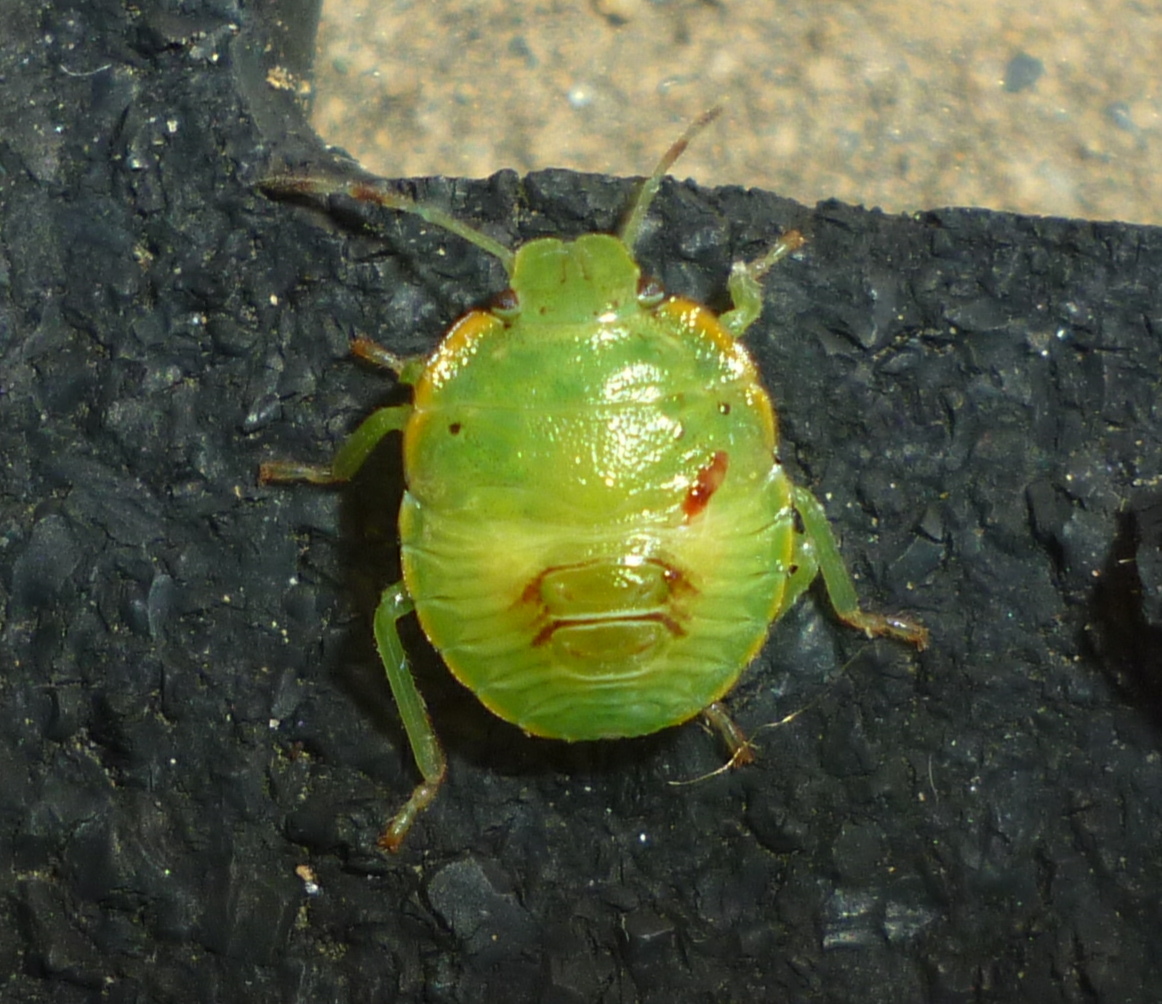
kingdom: Animalia
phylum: Arthropoda
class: Insecta
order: Hemiptera
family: Pentatomidae
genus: Chinavia
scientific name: Chinavia hilaris
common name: Green stink bug
